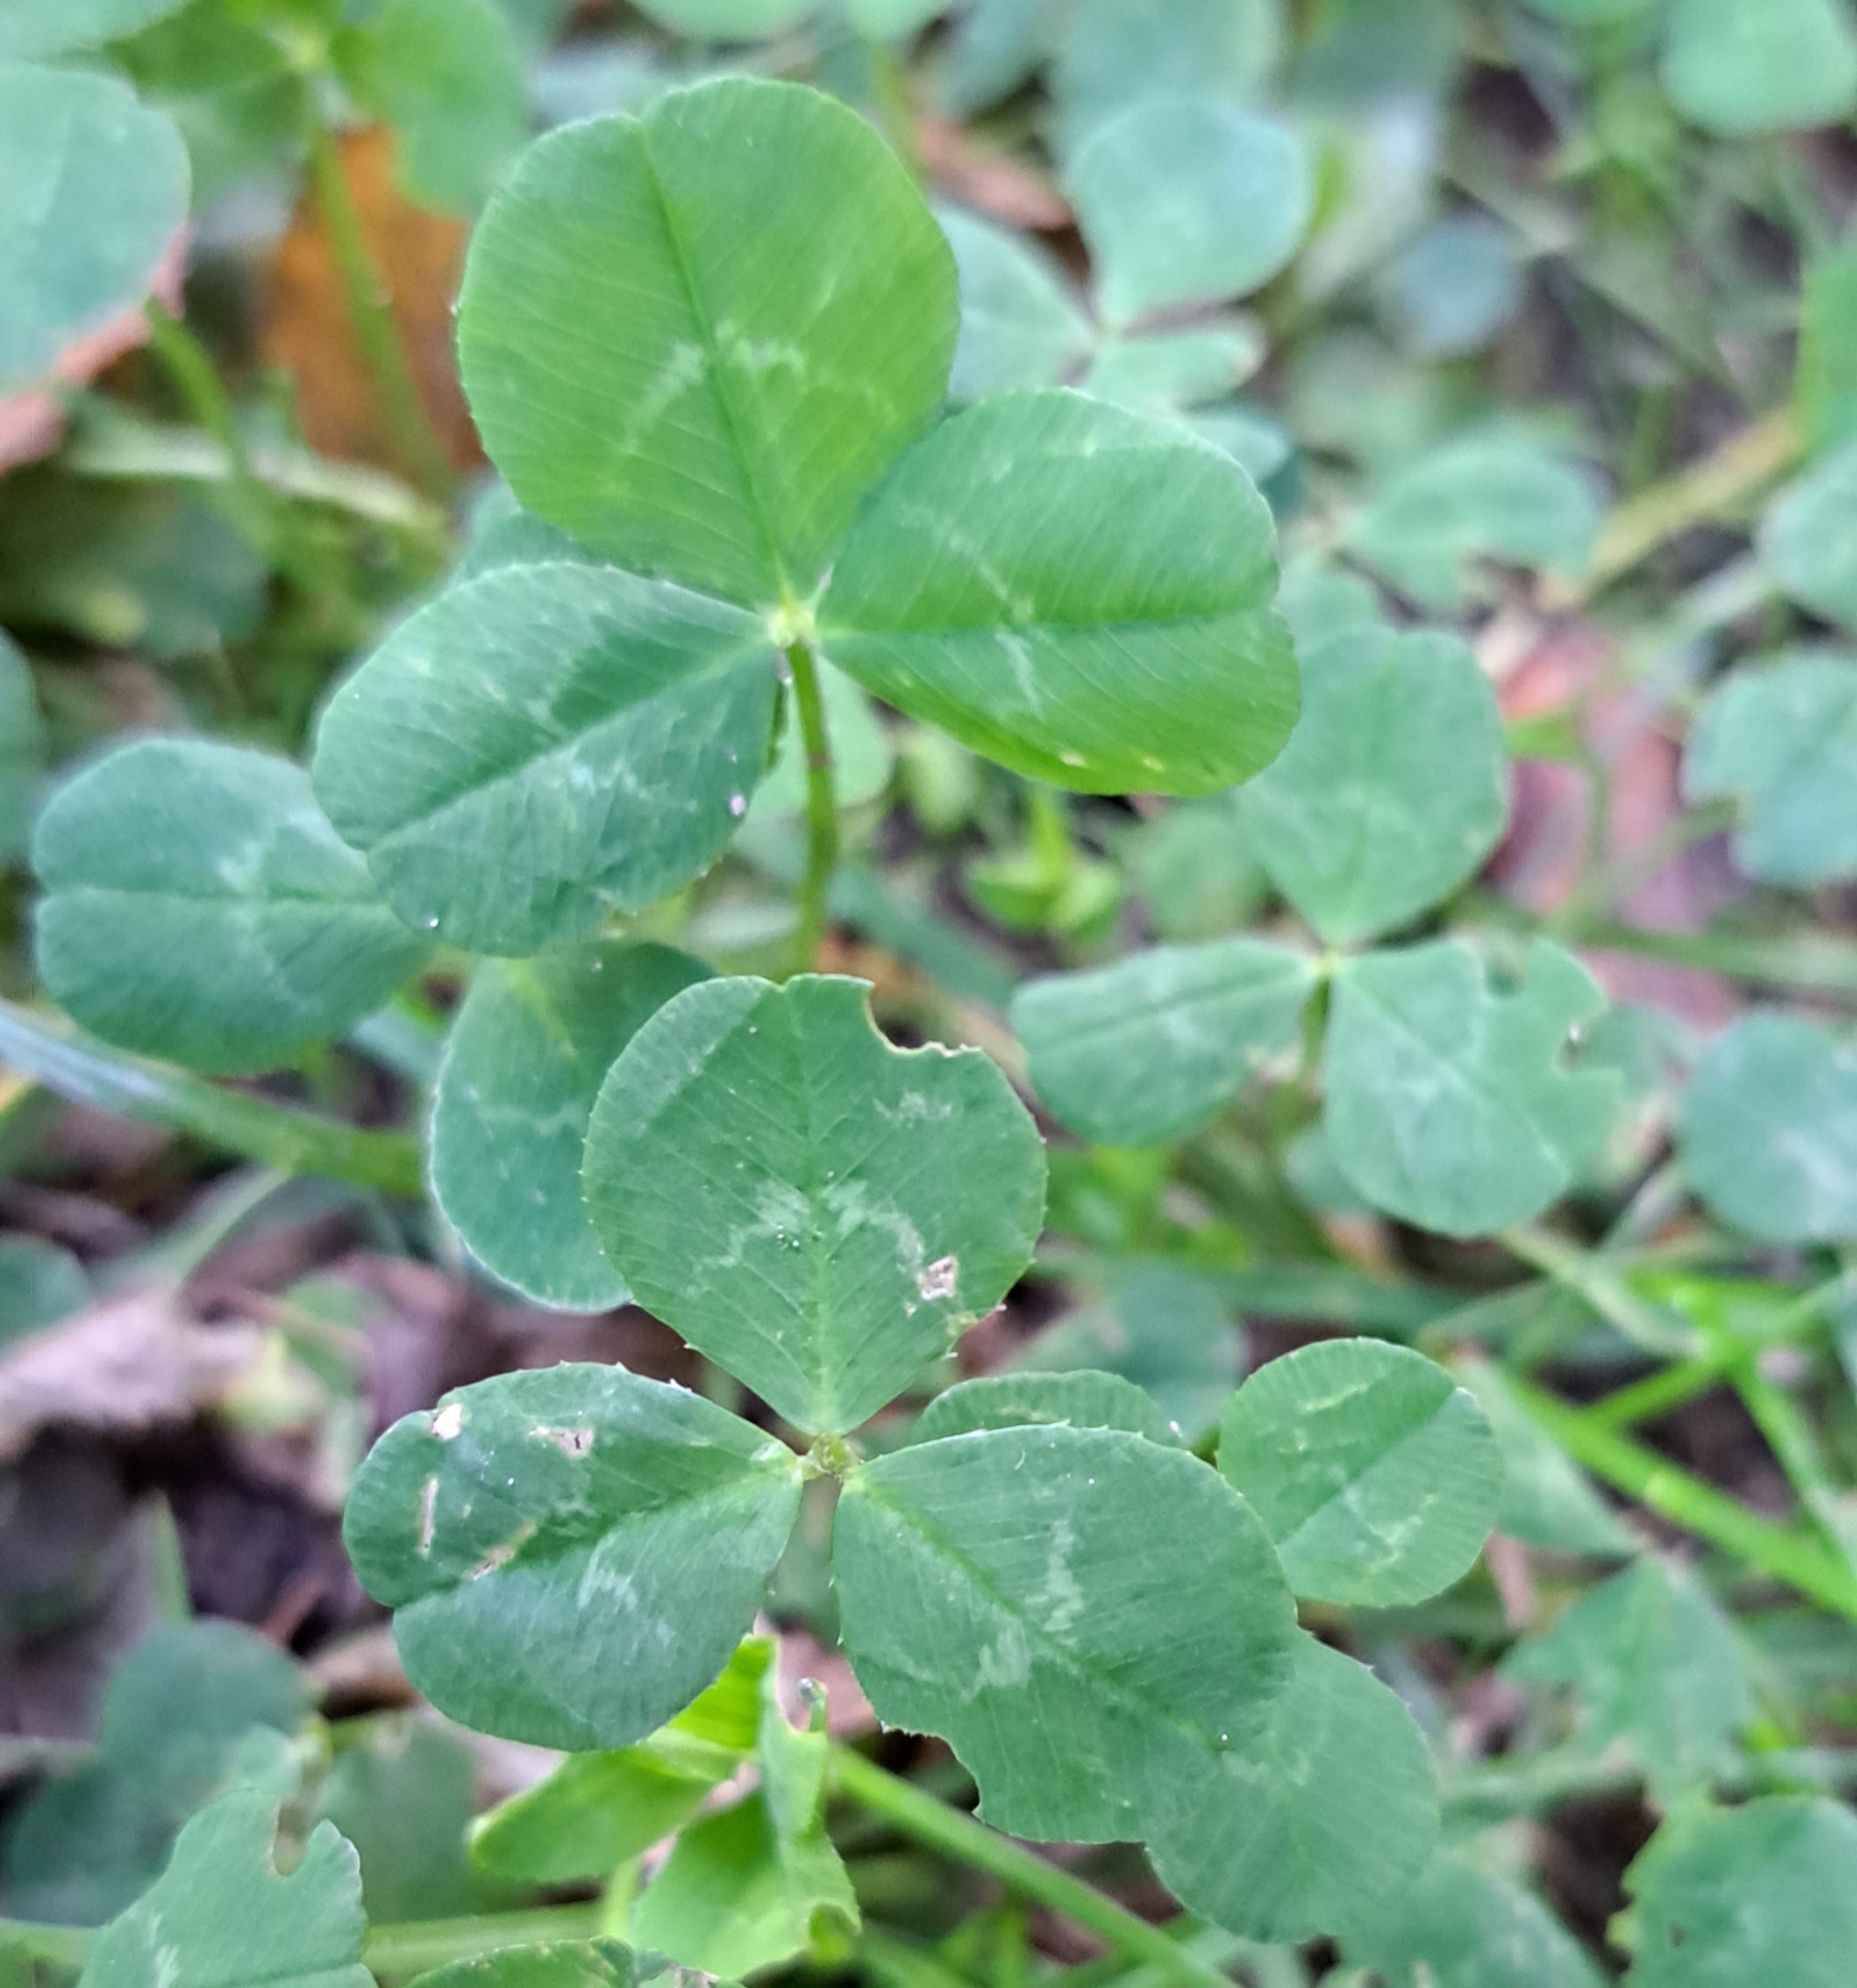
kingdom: Plantae
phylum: Tracheophyta
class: Magnoliopsida
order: Fabales
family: Fabaceae
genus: Trifolium
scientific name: Trifolium repens
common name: White clover
